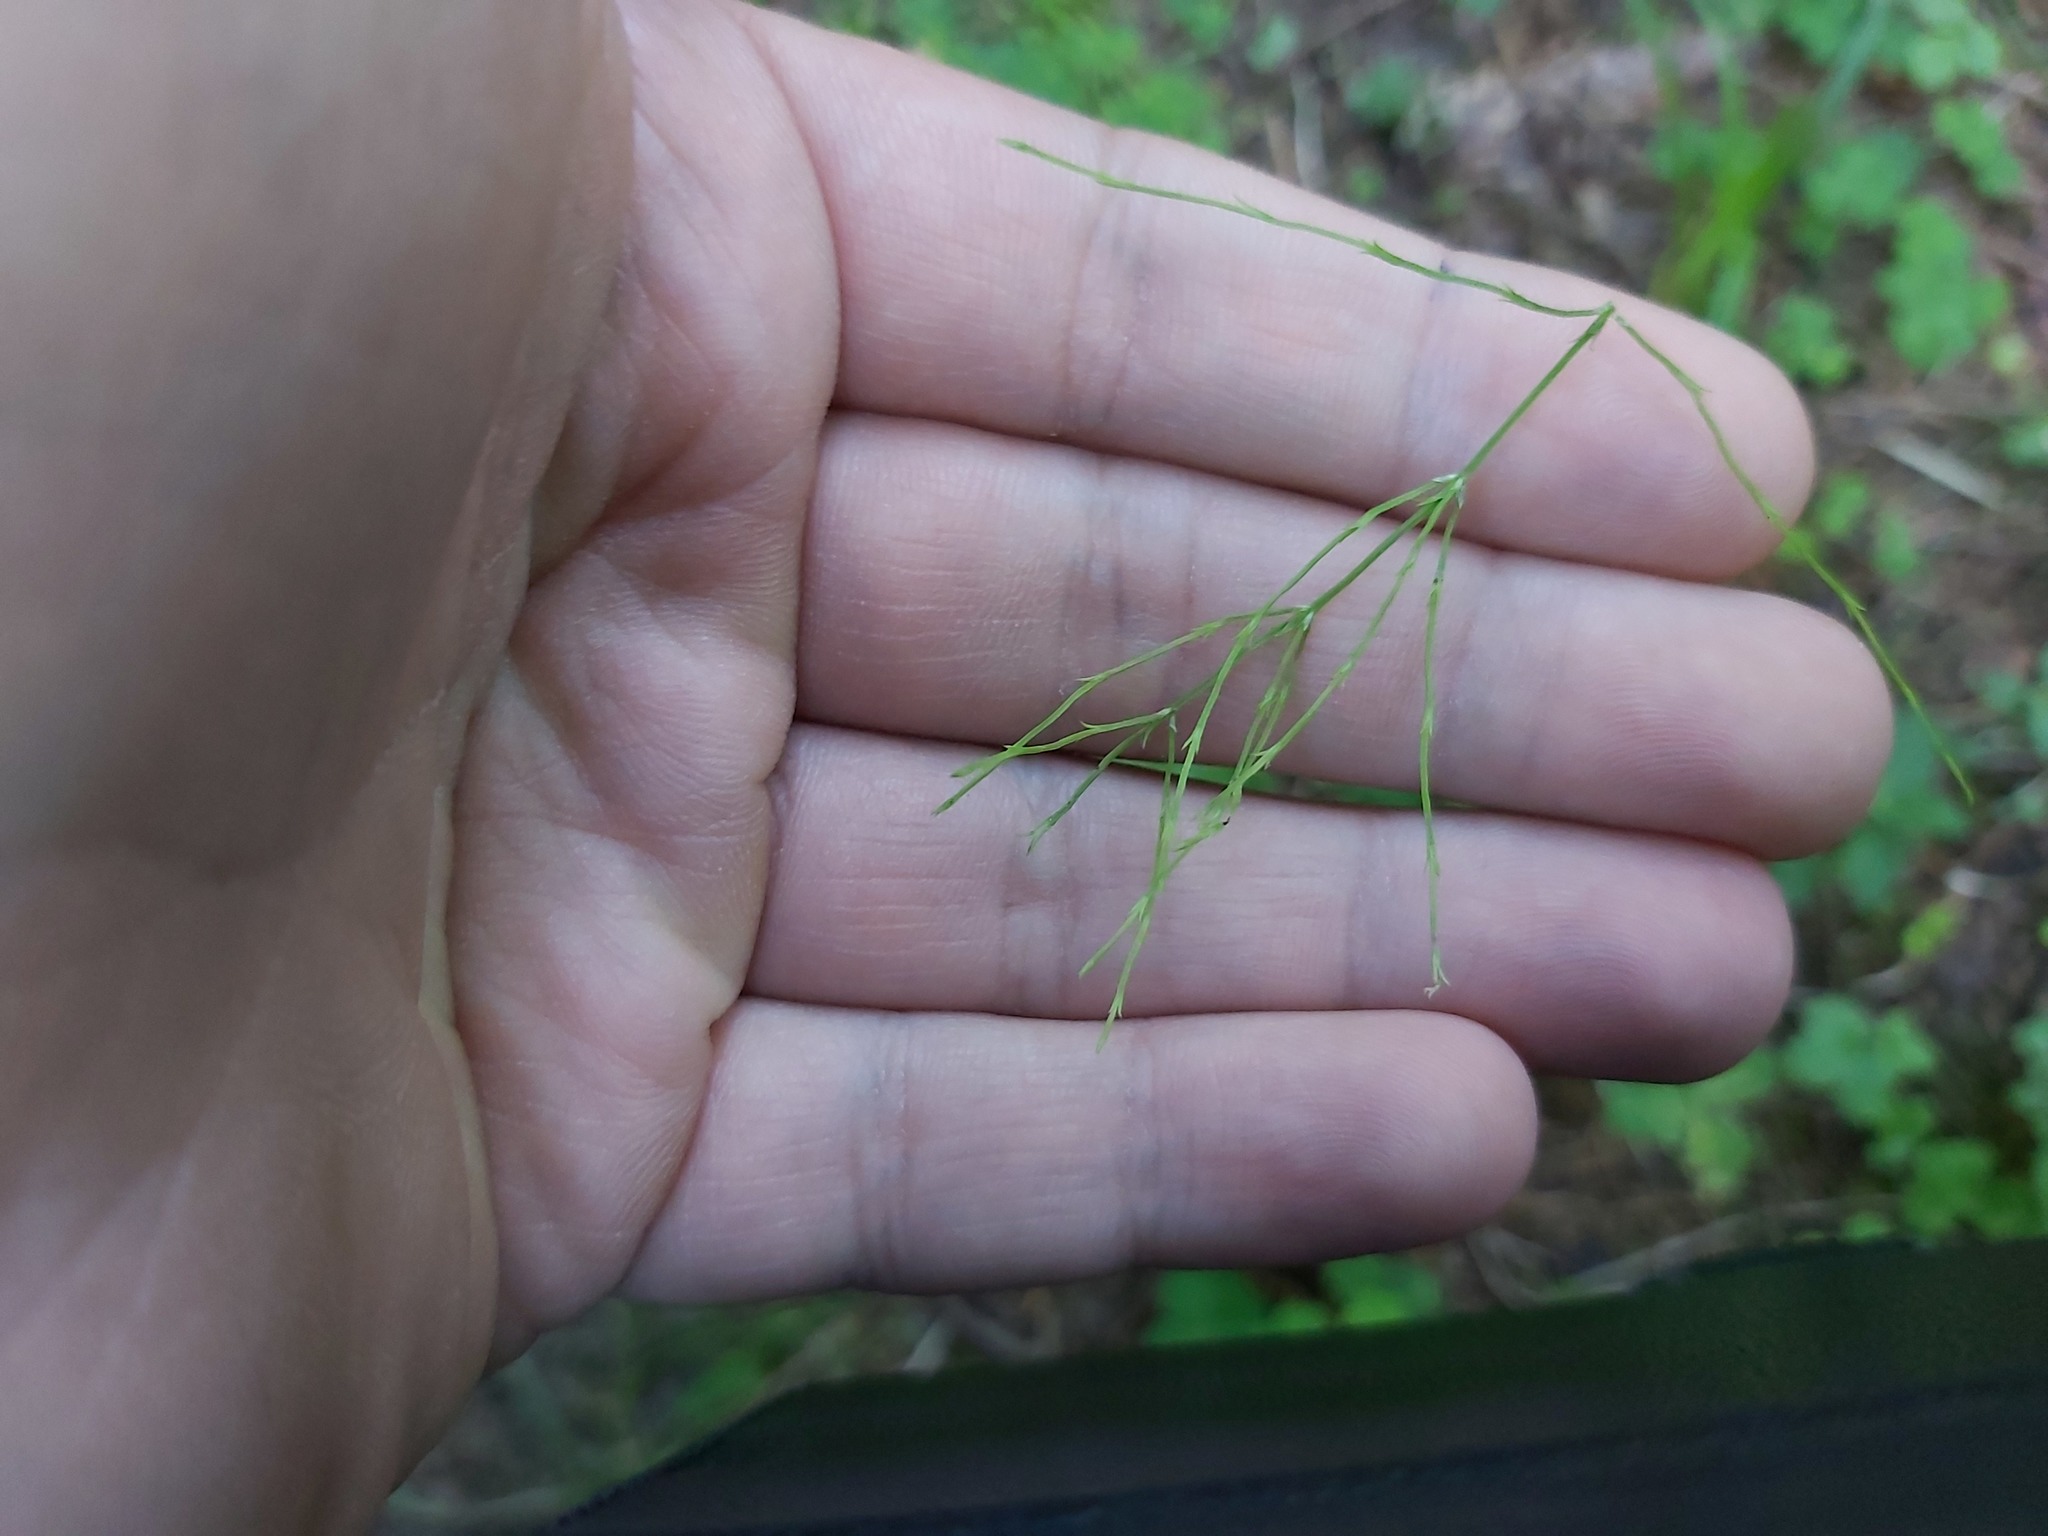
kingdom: Plantae
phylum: Tracheophyta
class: Polypodiopsida
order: Equisetales
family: Equisetaceae
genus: Equisetum
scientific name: Equisetum sylvaticum
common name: Wood horsetail
